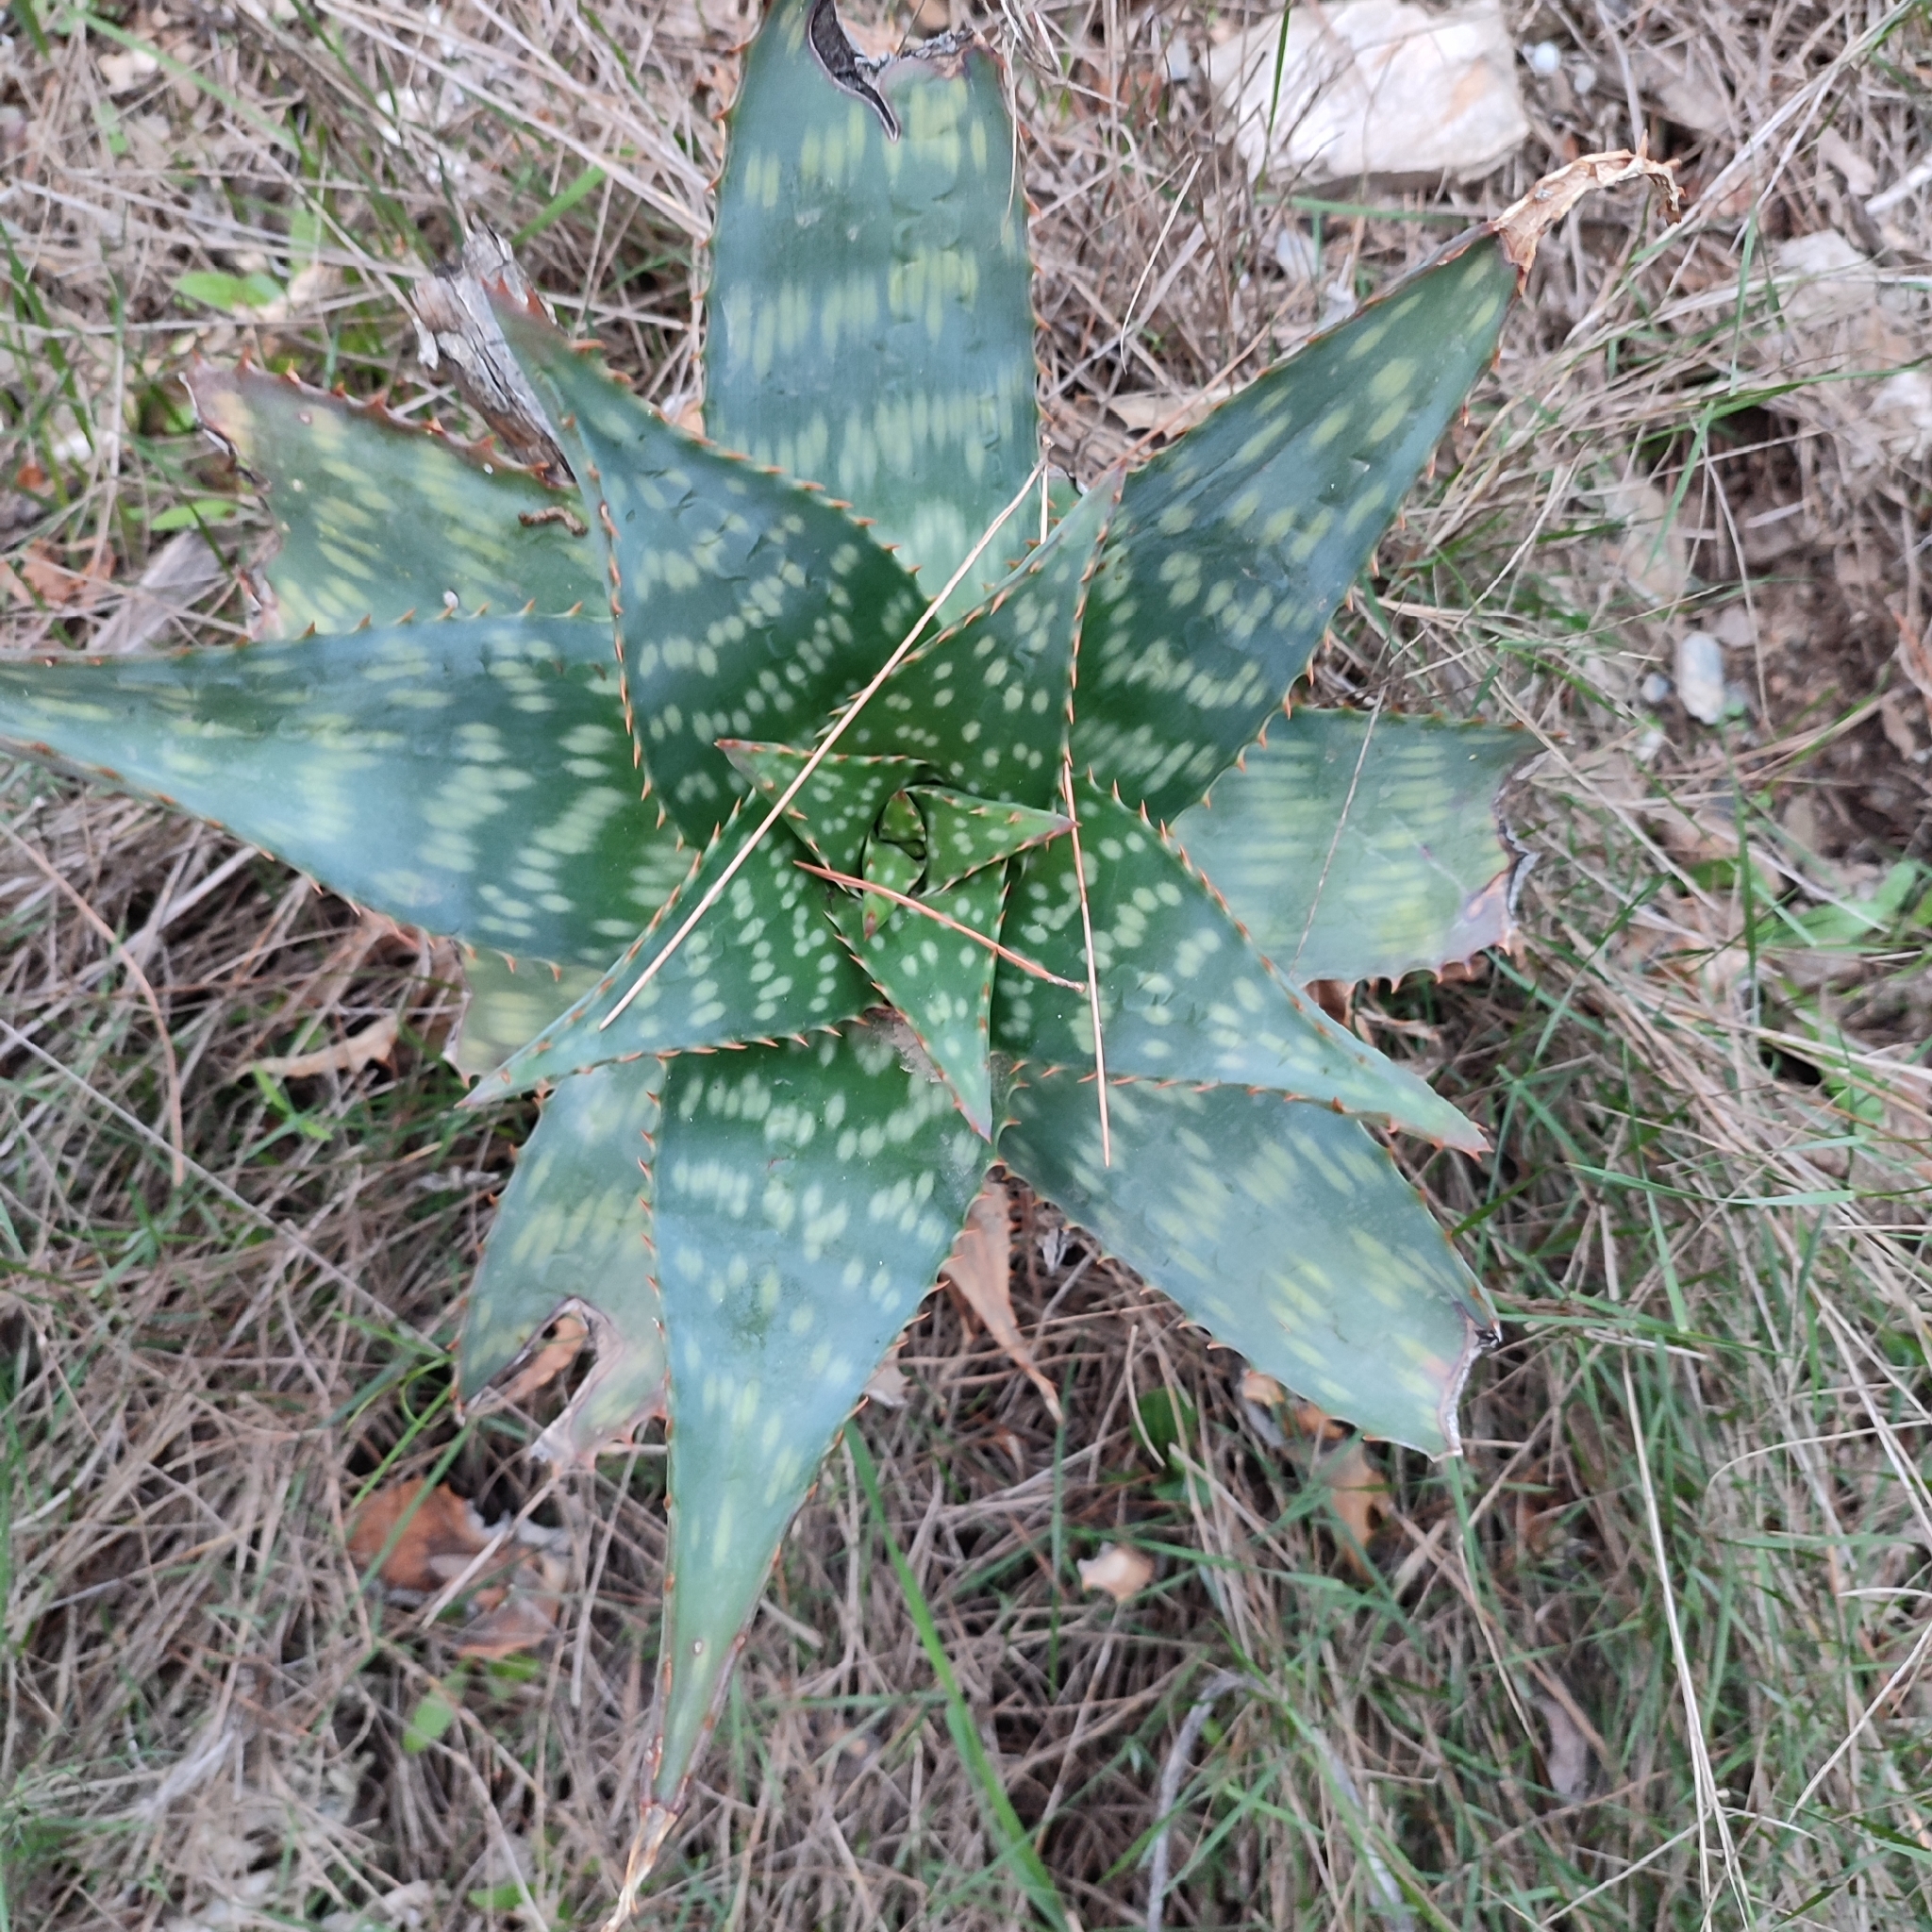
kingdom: Plantae
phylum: Tracheophyta
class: Liliopsida
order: Asparagales
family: Asphodelaceae
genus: Aloe
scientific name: Aloe maculata
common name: Broadleaf aloe
